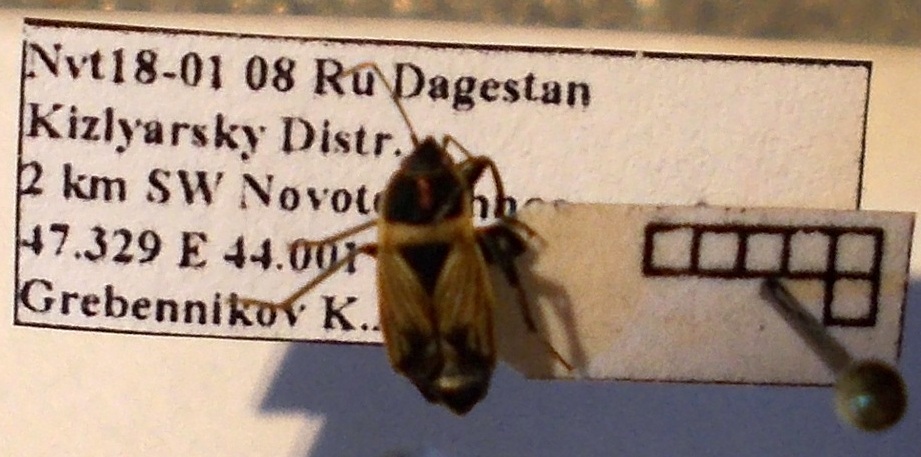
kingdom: Animalia
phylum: Arthropoda
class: Insecta
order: Hemiptera
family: Rhyparochromidae
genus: Bleteogonus
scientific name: Bleteogonus beckeri
